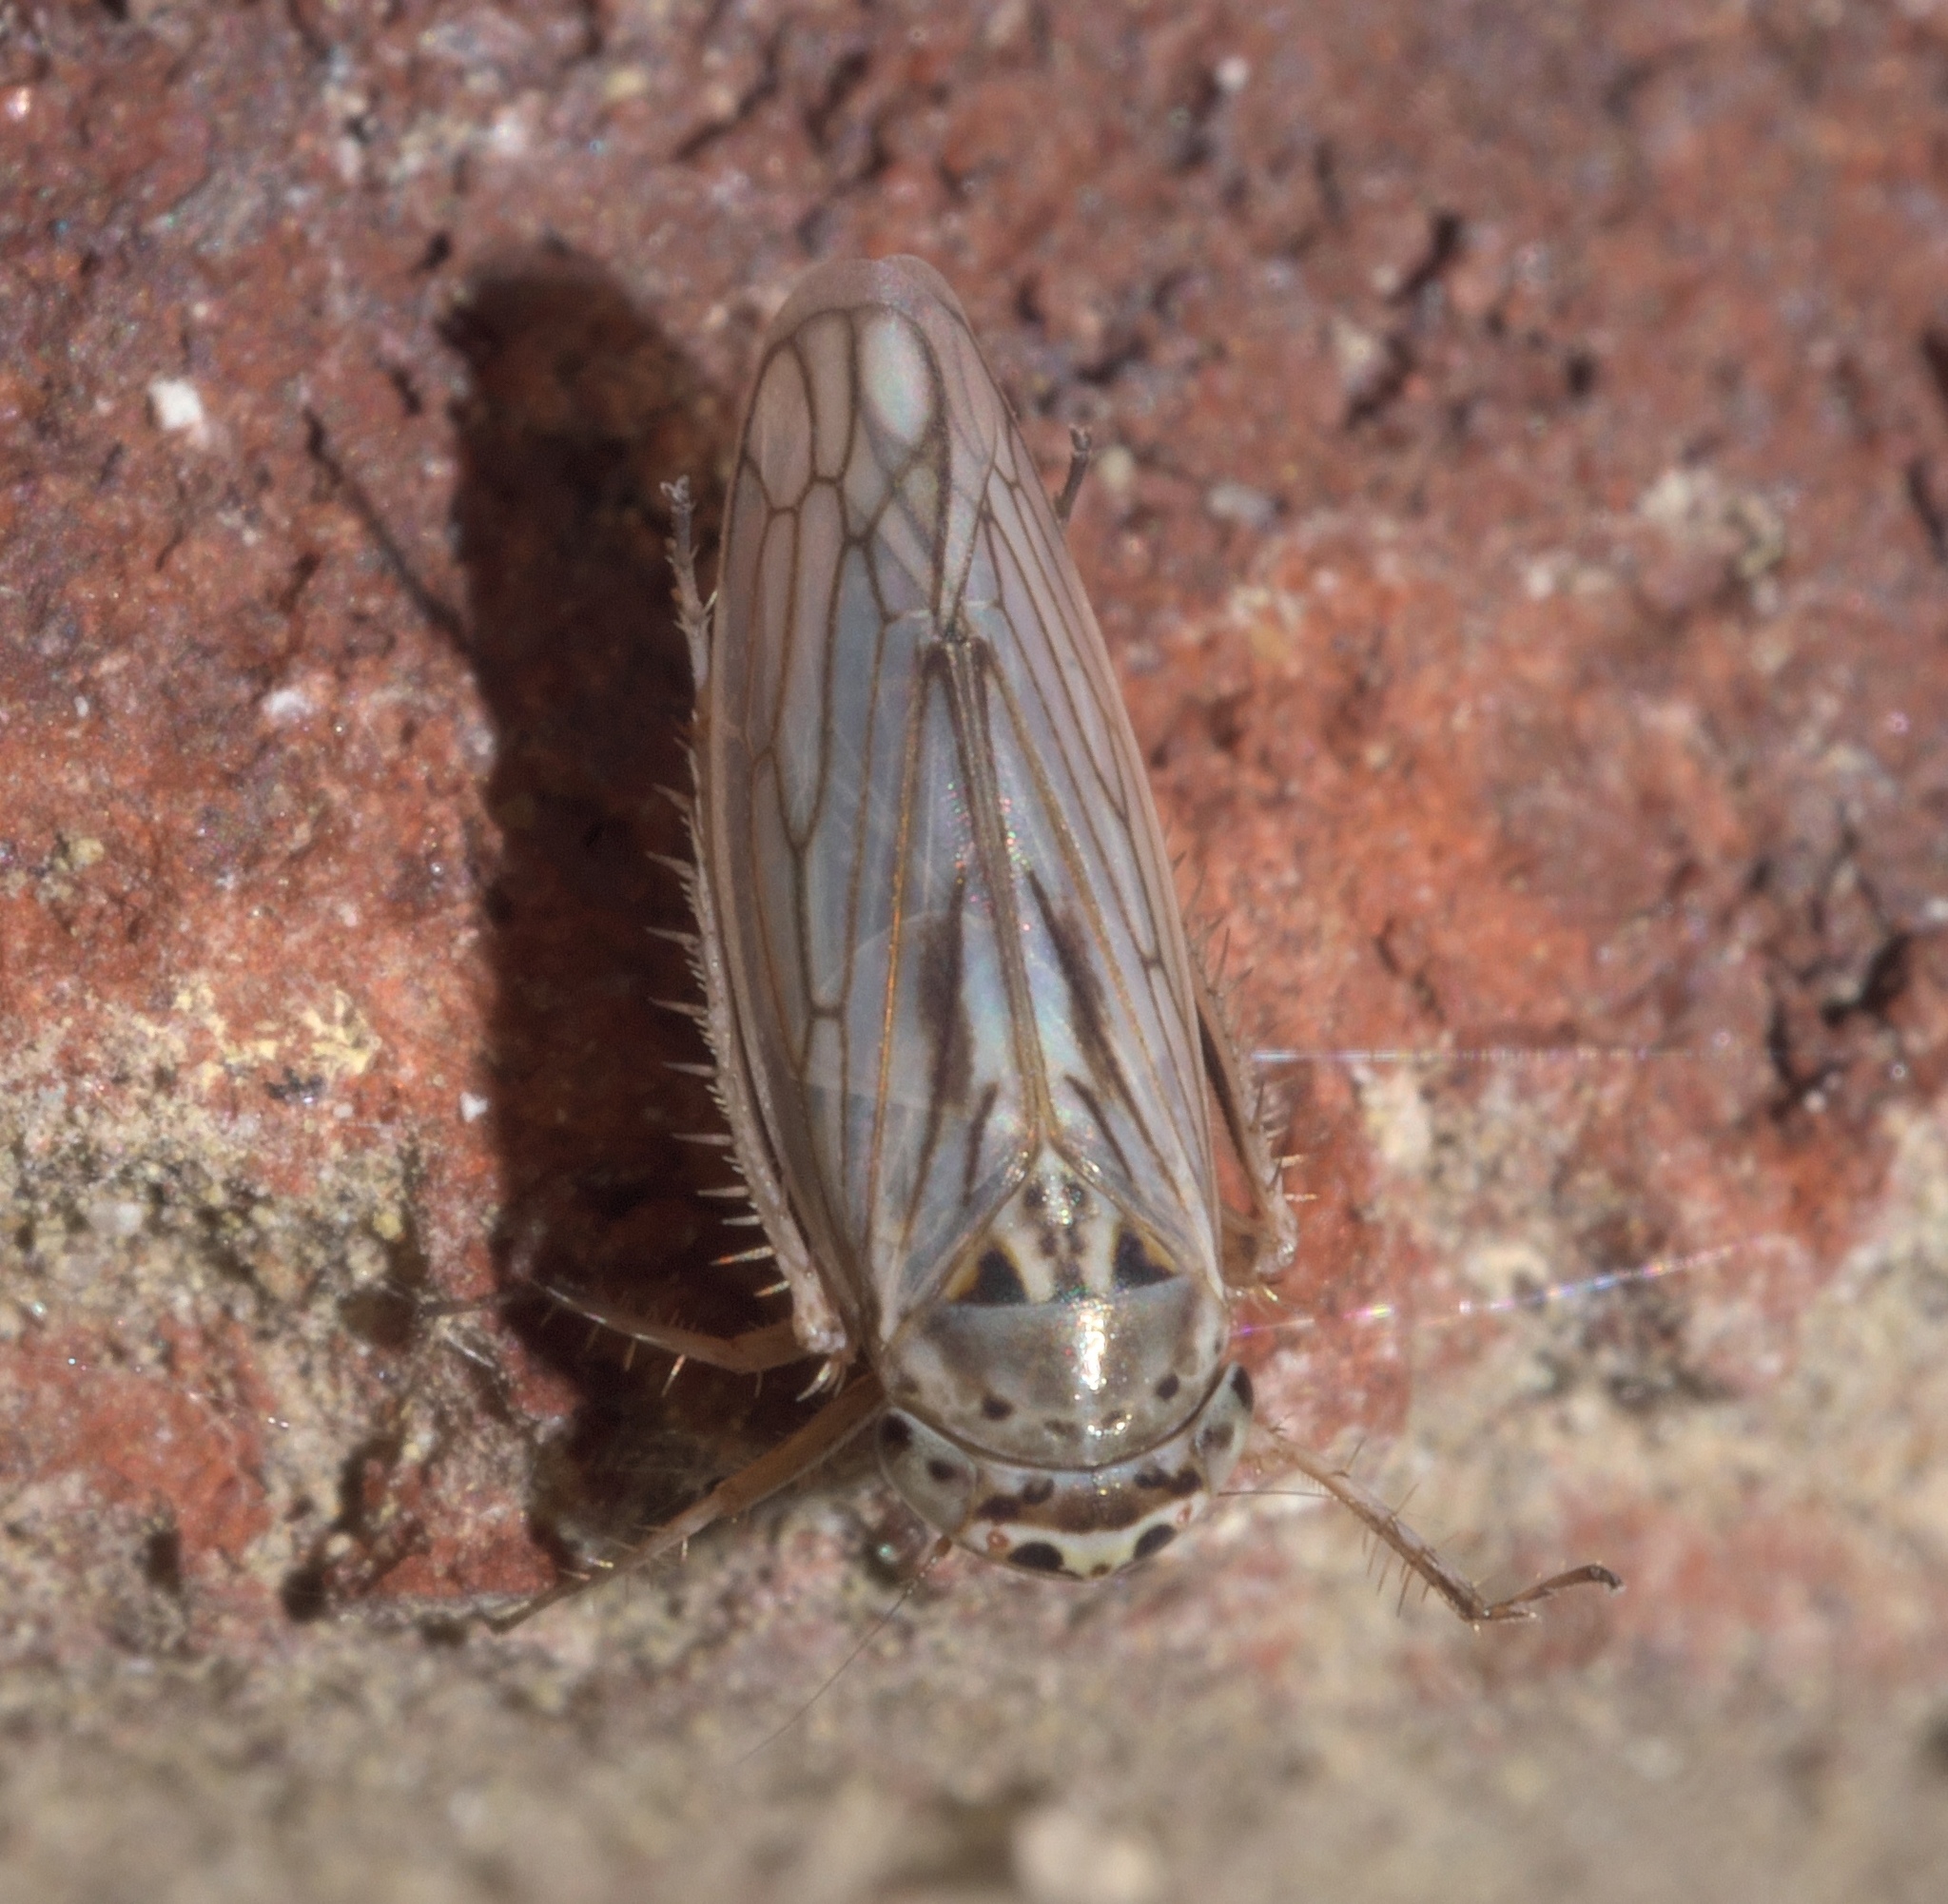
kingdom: Animalia
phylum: Arthropoda
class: Insecta
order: Hemiptera
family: Cicadellidae
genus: Exitianus
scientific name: Exitianus exitiosus
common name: Gray lawn leafhopper
